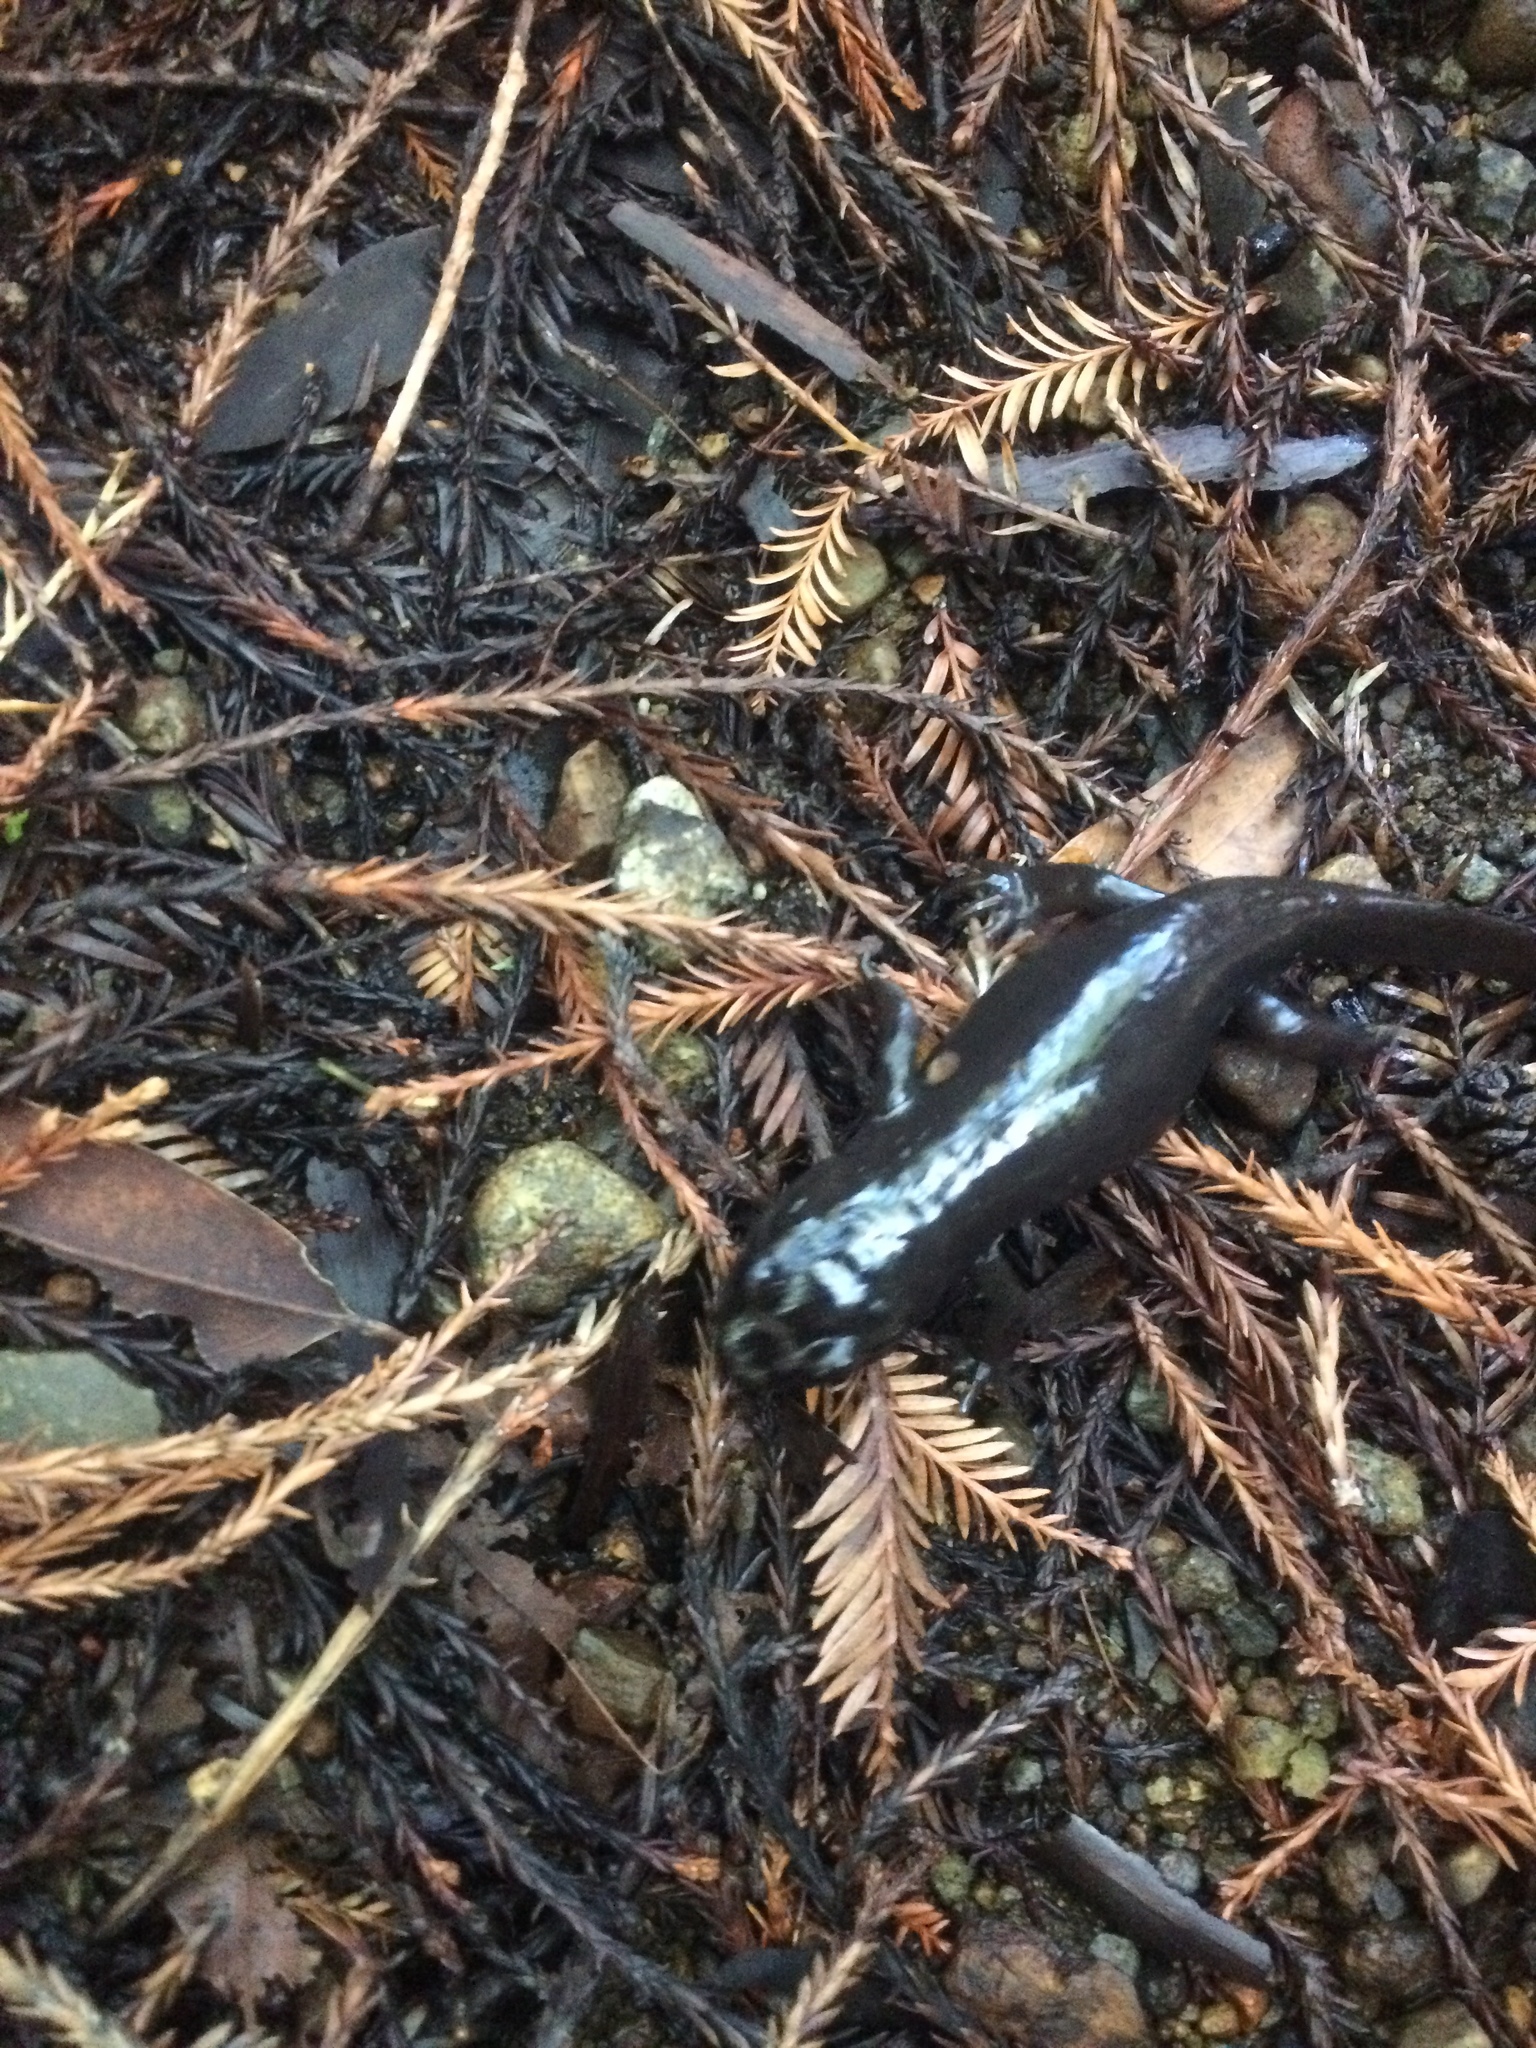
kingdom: Animalia
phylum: Chordata
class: Amphibia
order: Caudata
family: Ambystomatidae
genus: Dicamptodon
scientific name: Dicamptodon ensatus
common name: California giant salamander
